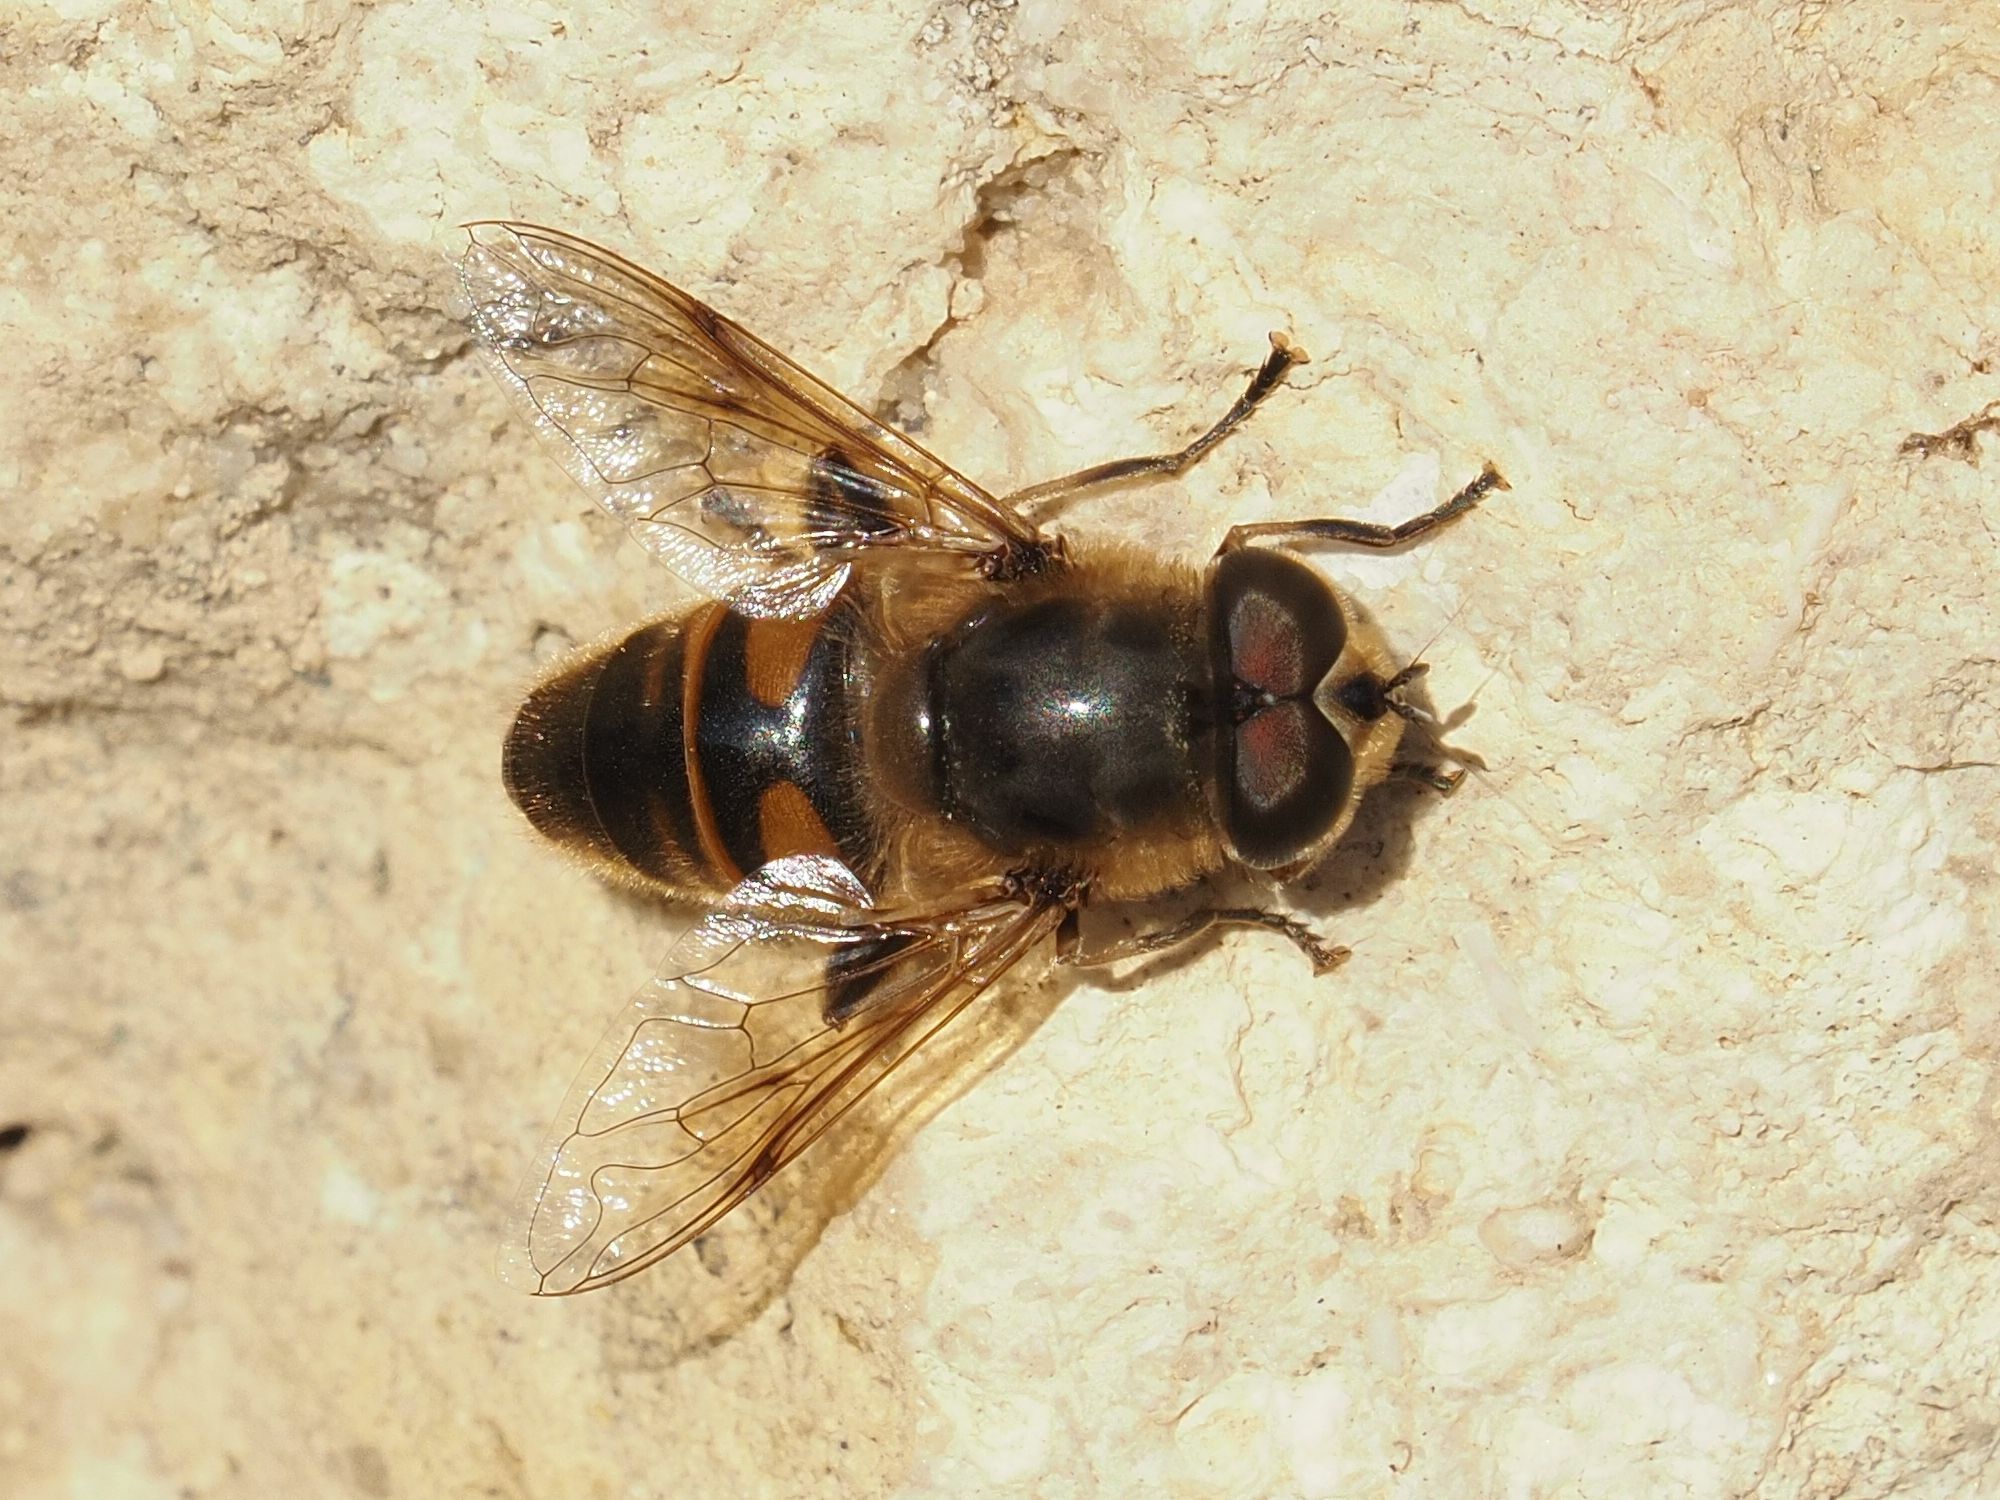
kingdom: Animalia
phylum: Arthropoda
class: Insecta
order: Diptera
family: Syrphidae
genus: Eristalis
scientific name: Eristalis tenax
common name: Drone fly
